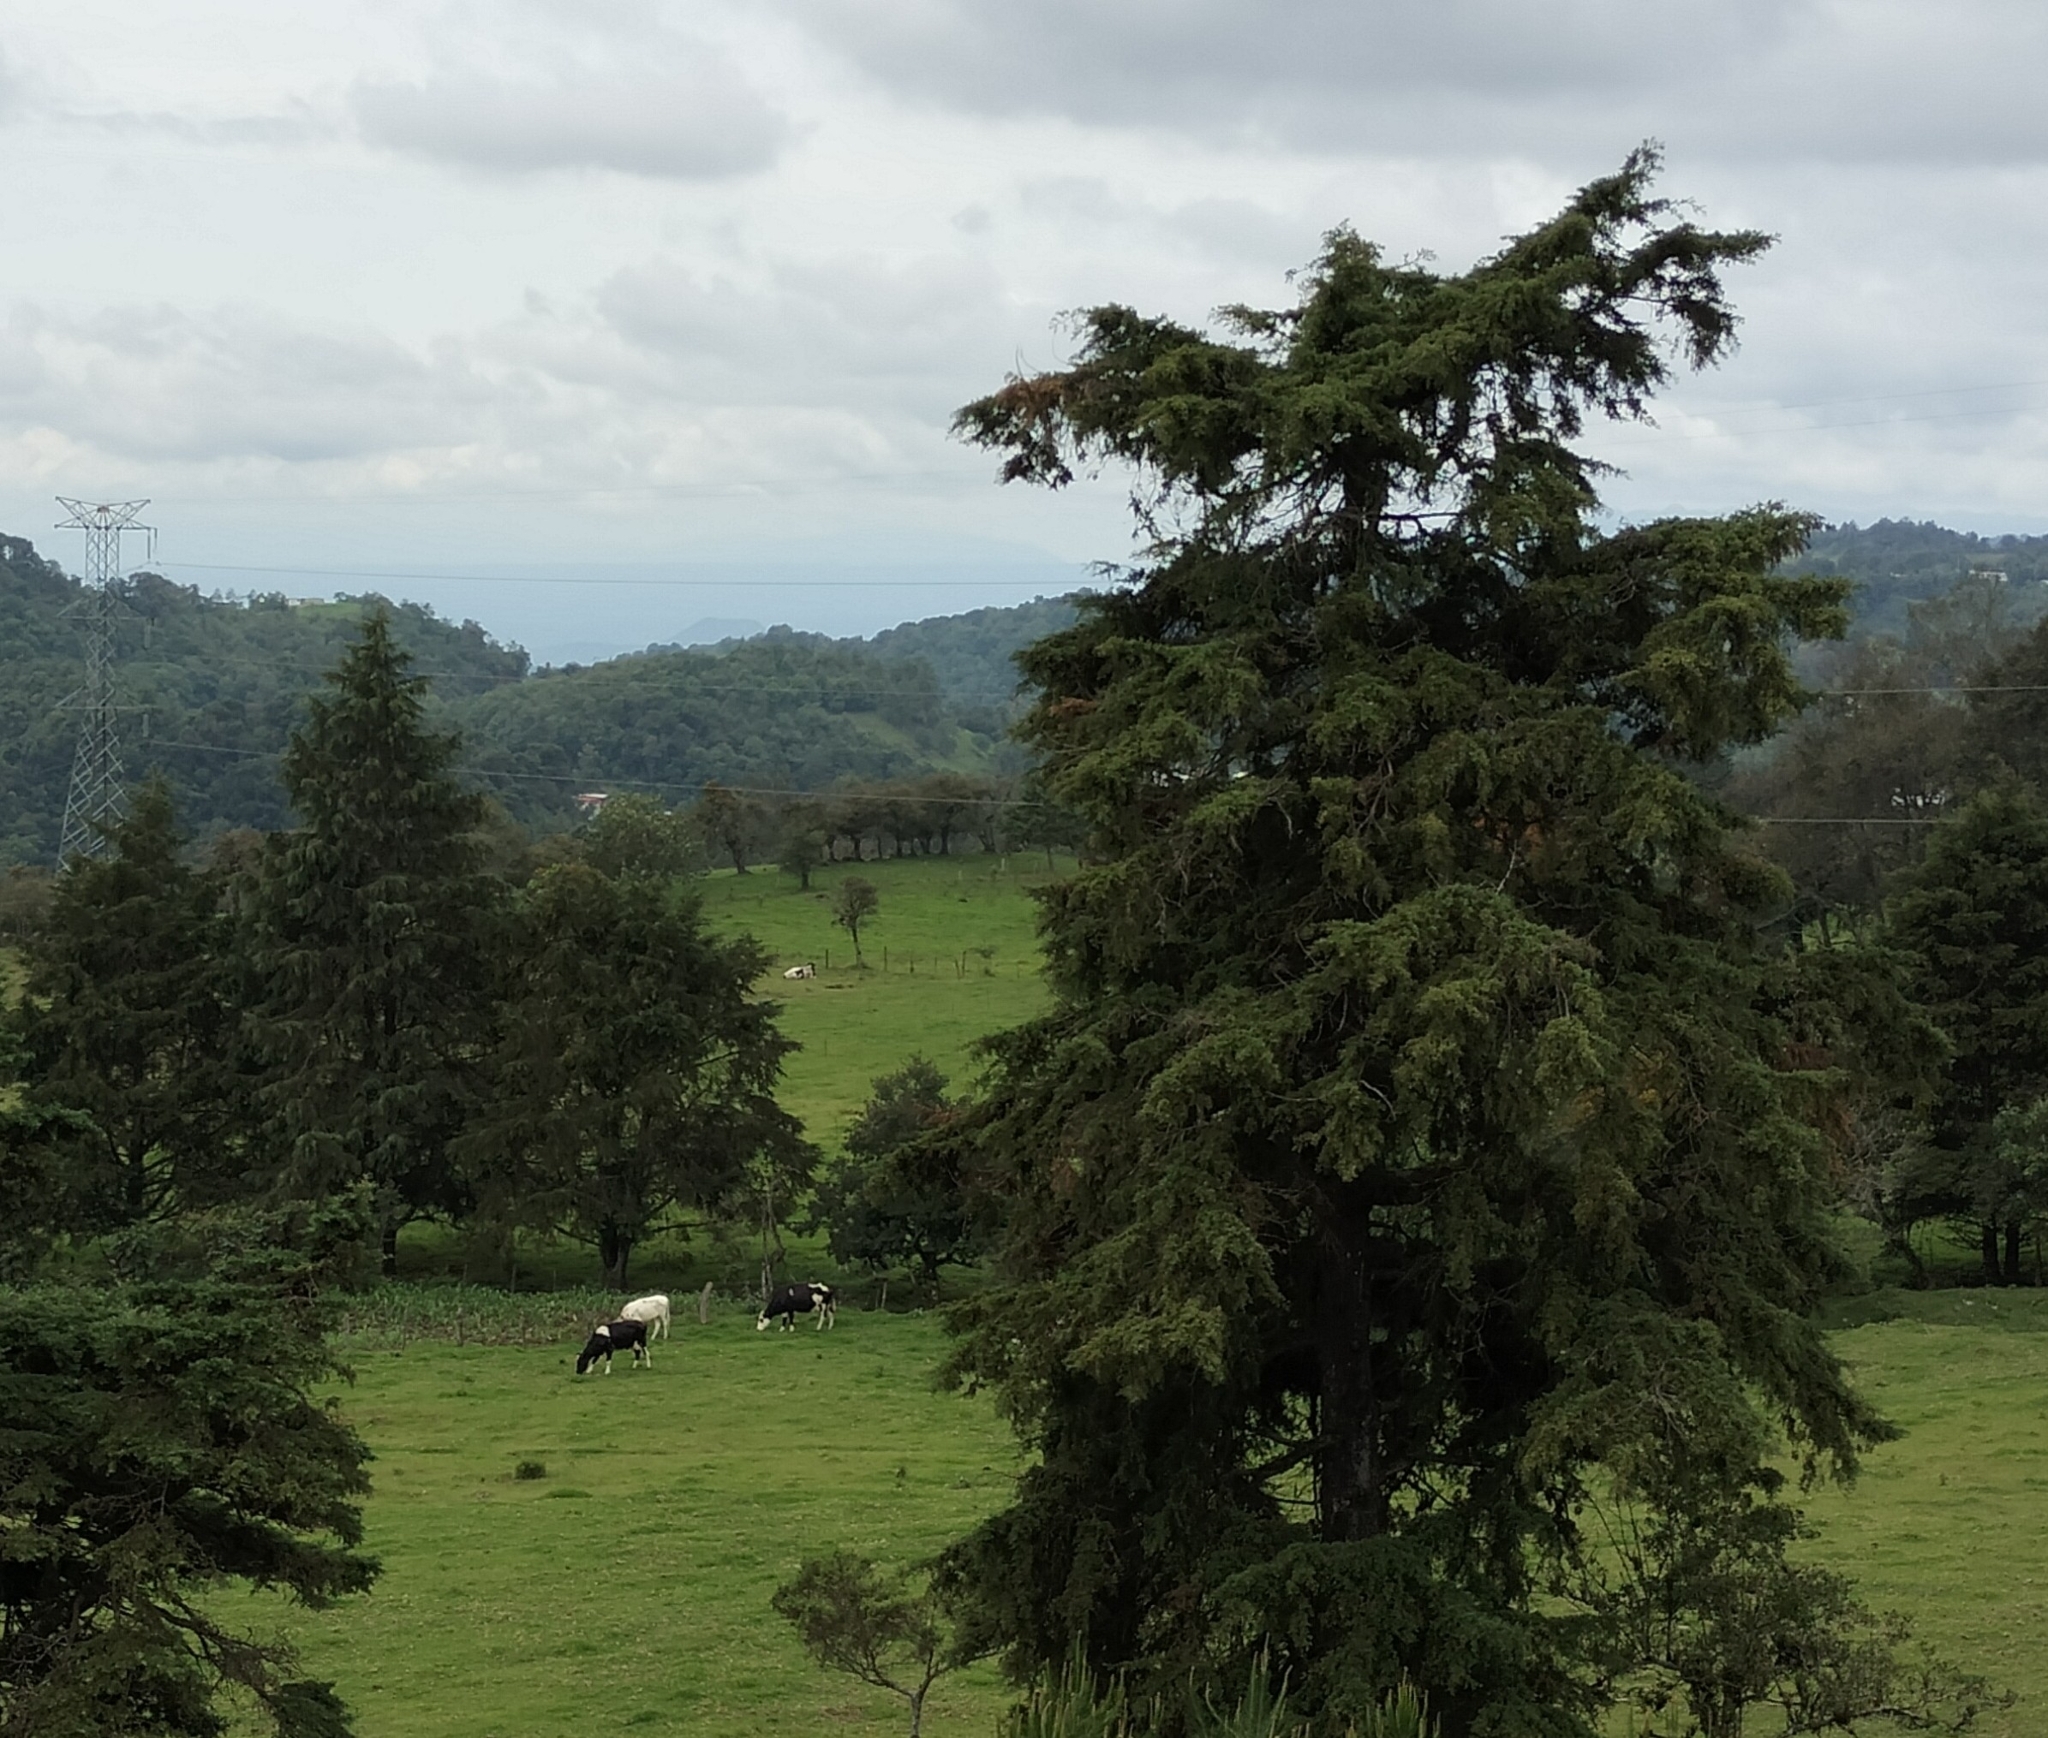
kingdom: Animalia
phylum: Chordata
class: Mammalia
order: Artiodactyla
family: Bovidae
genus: Bos
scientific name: Bos taurus
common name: Domesticated cattle
